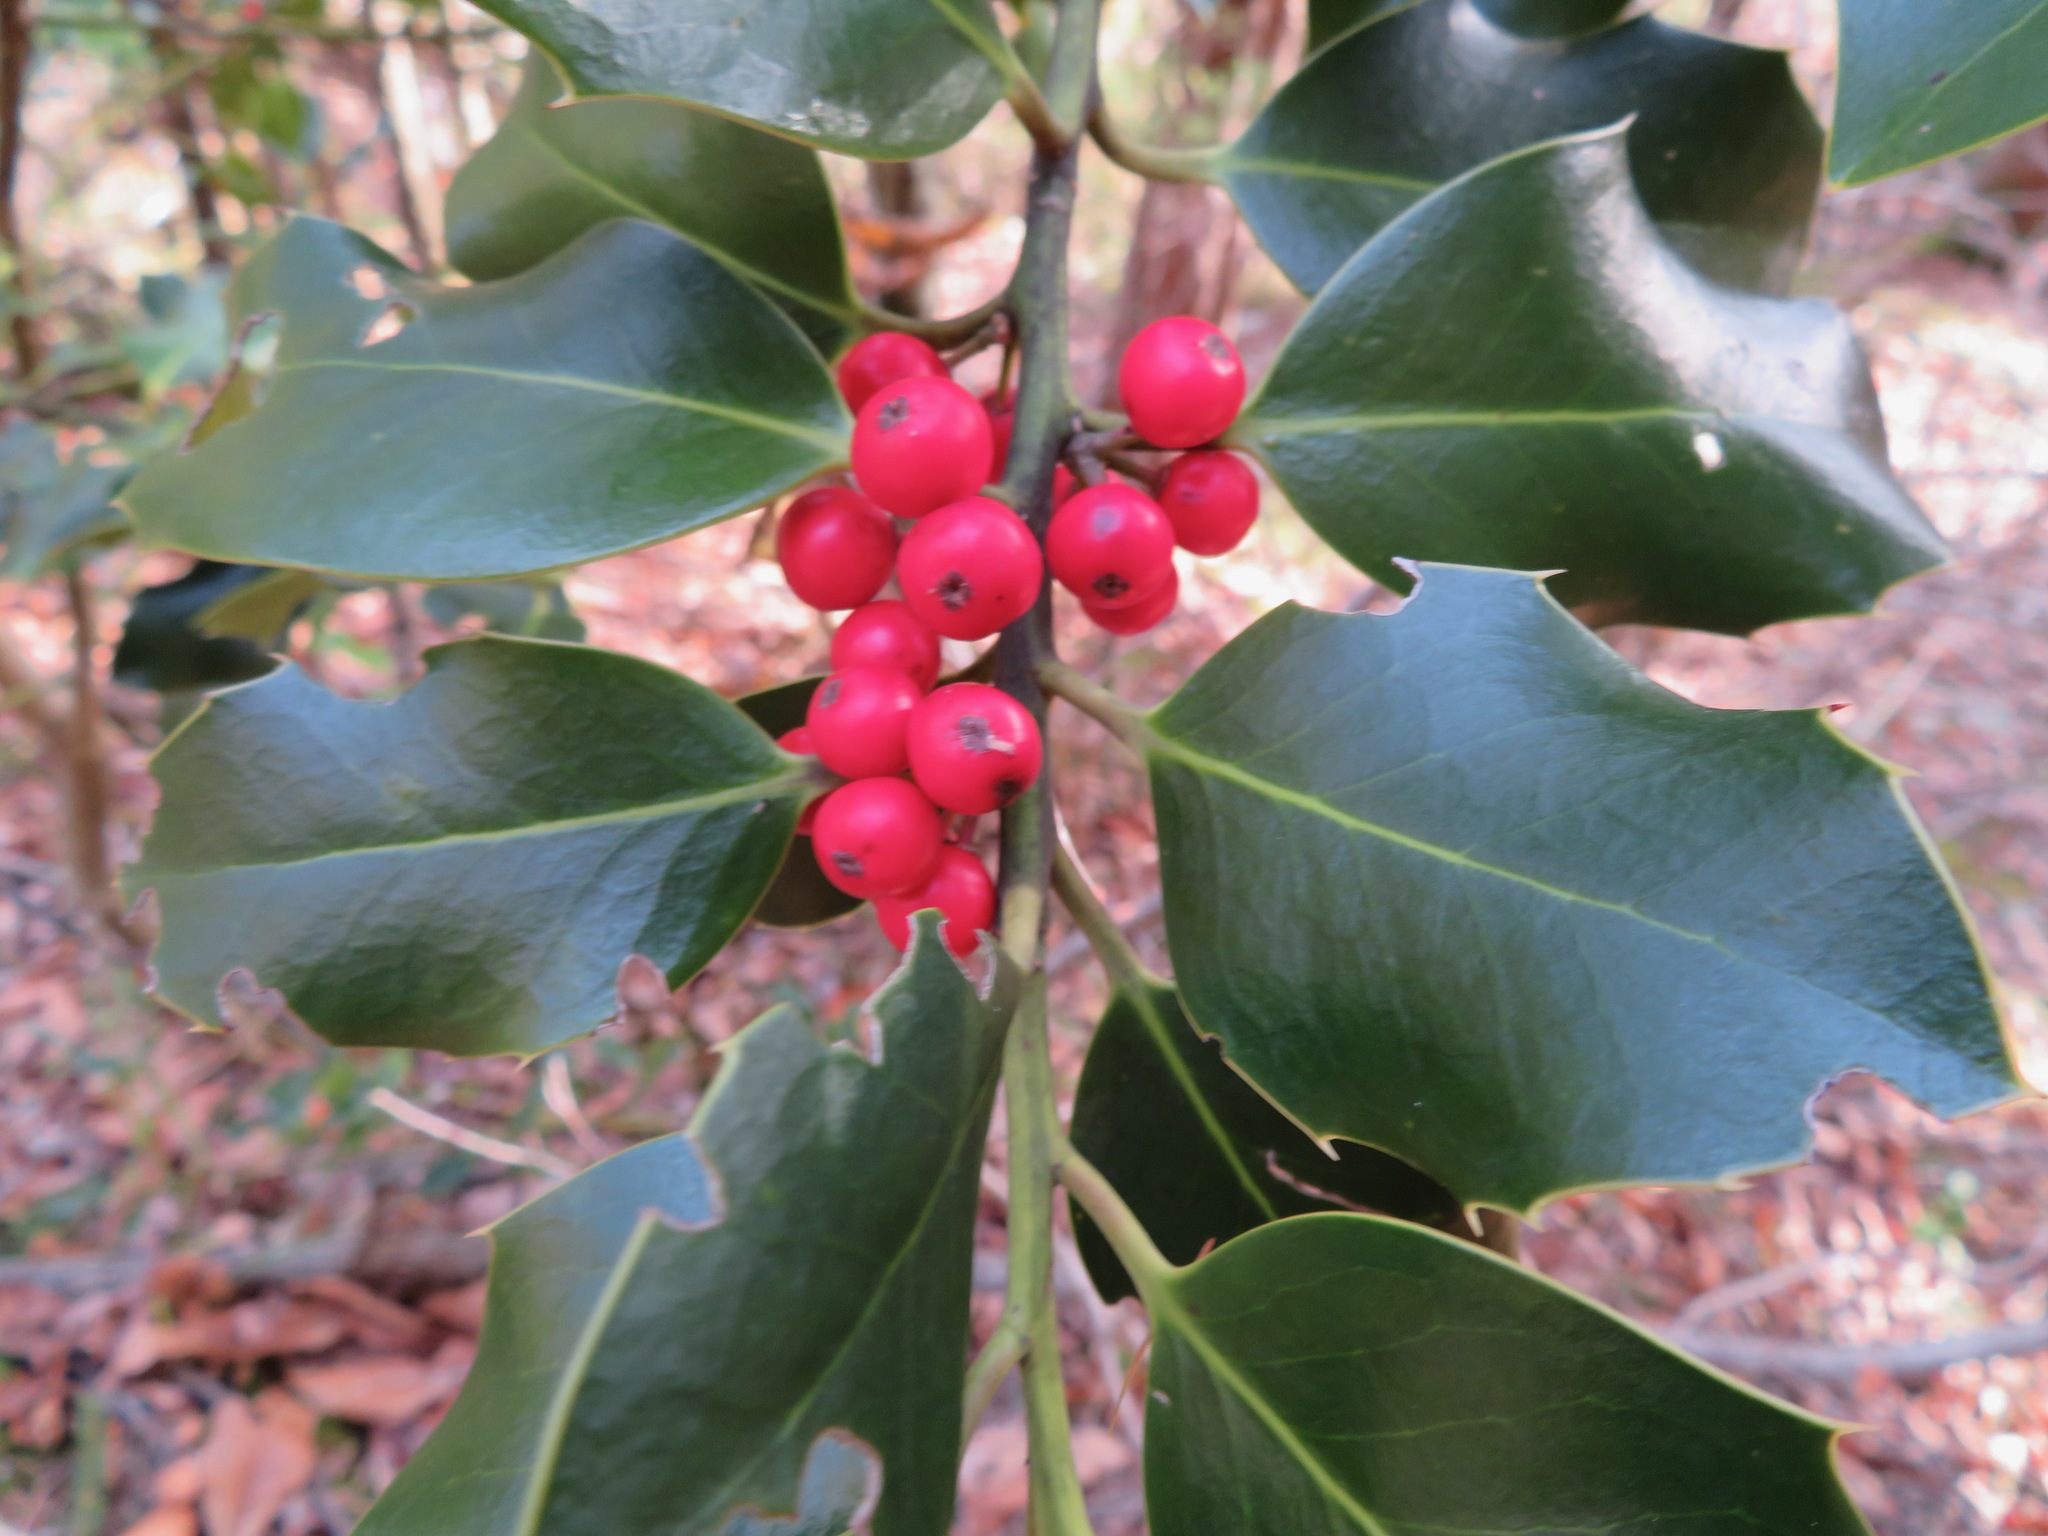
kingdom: Plantae
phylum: Tracheophyta
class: Magnoliopsida
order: Aquifoliales
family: Aquifoliaceae
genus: Ilex
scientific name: Ilex aquifolium
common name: English holly
